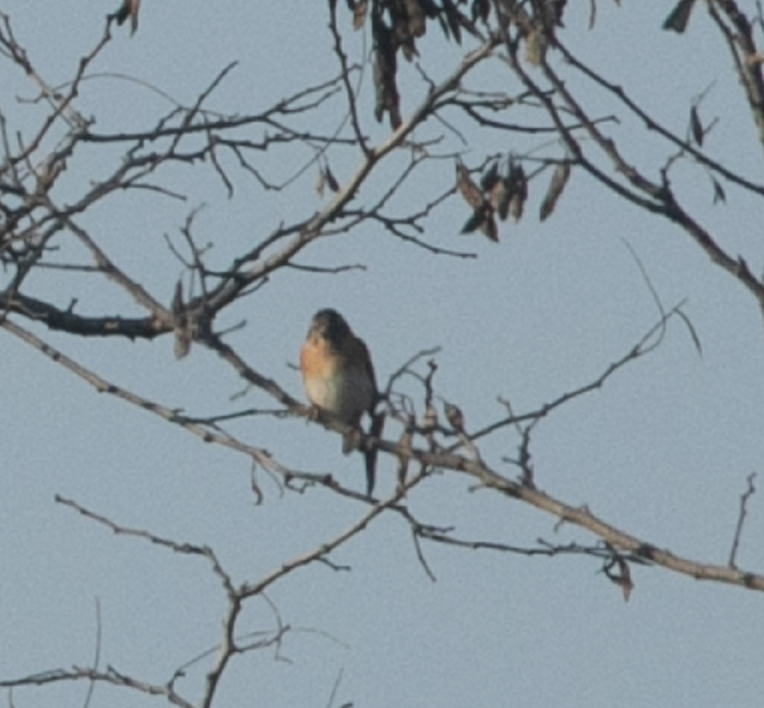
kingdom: Animalia
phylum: Chordata
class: Aves
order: Passeriformes
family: Fringillidae
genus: Fringilla
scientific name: Fringilla montifringilla
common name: Brambling
